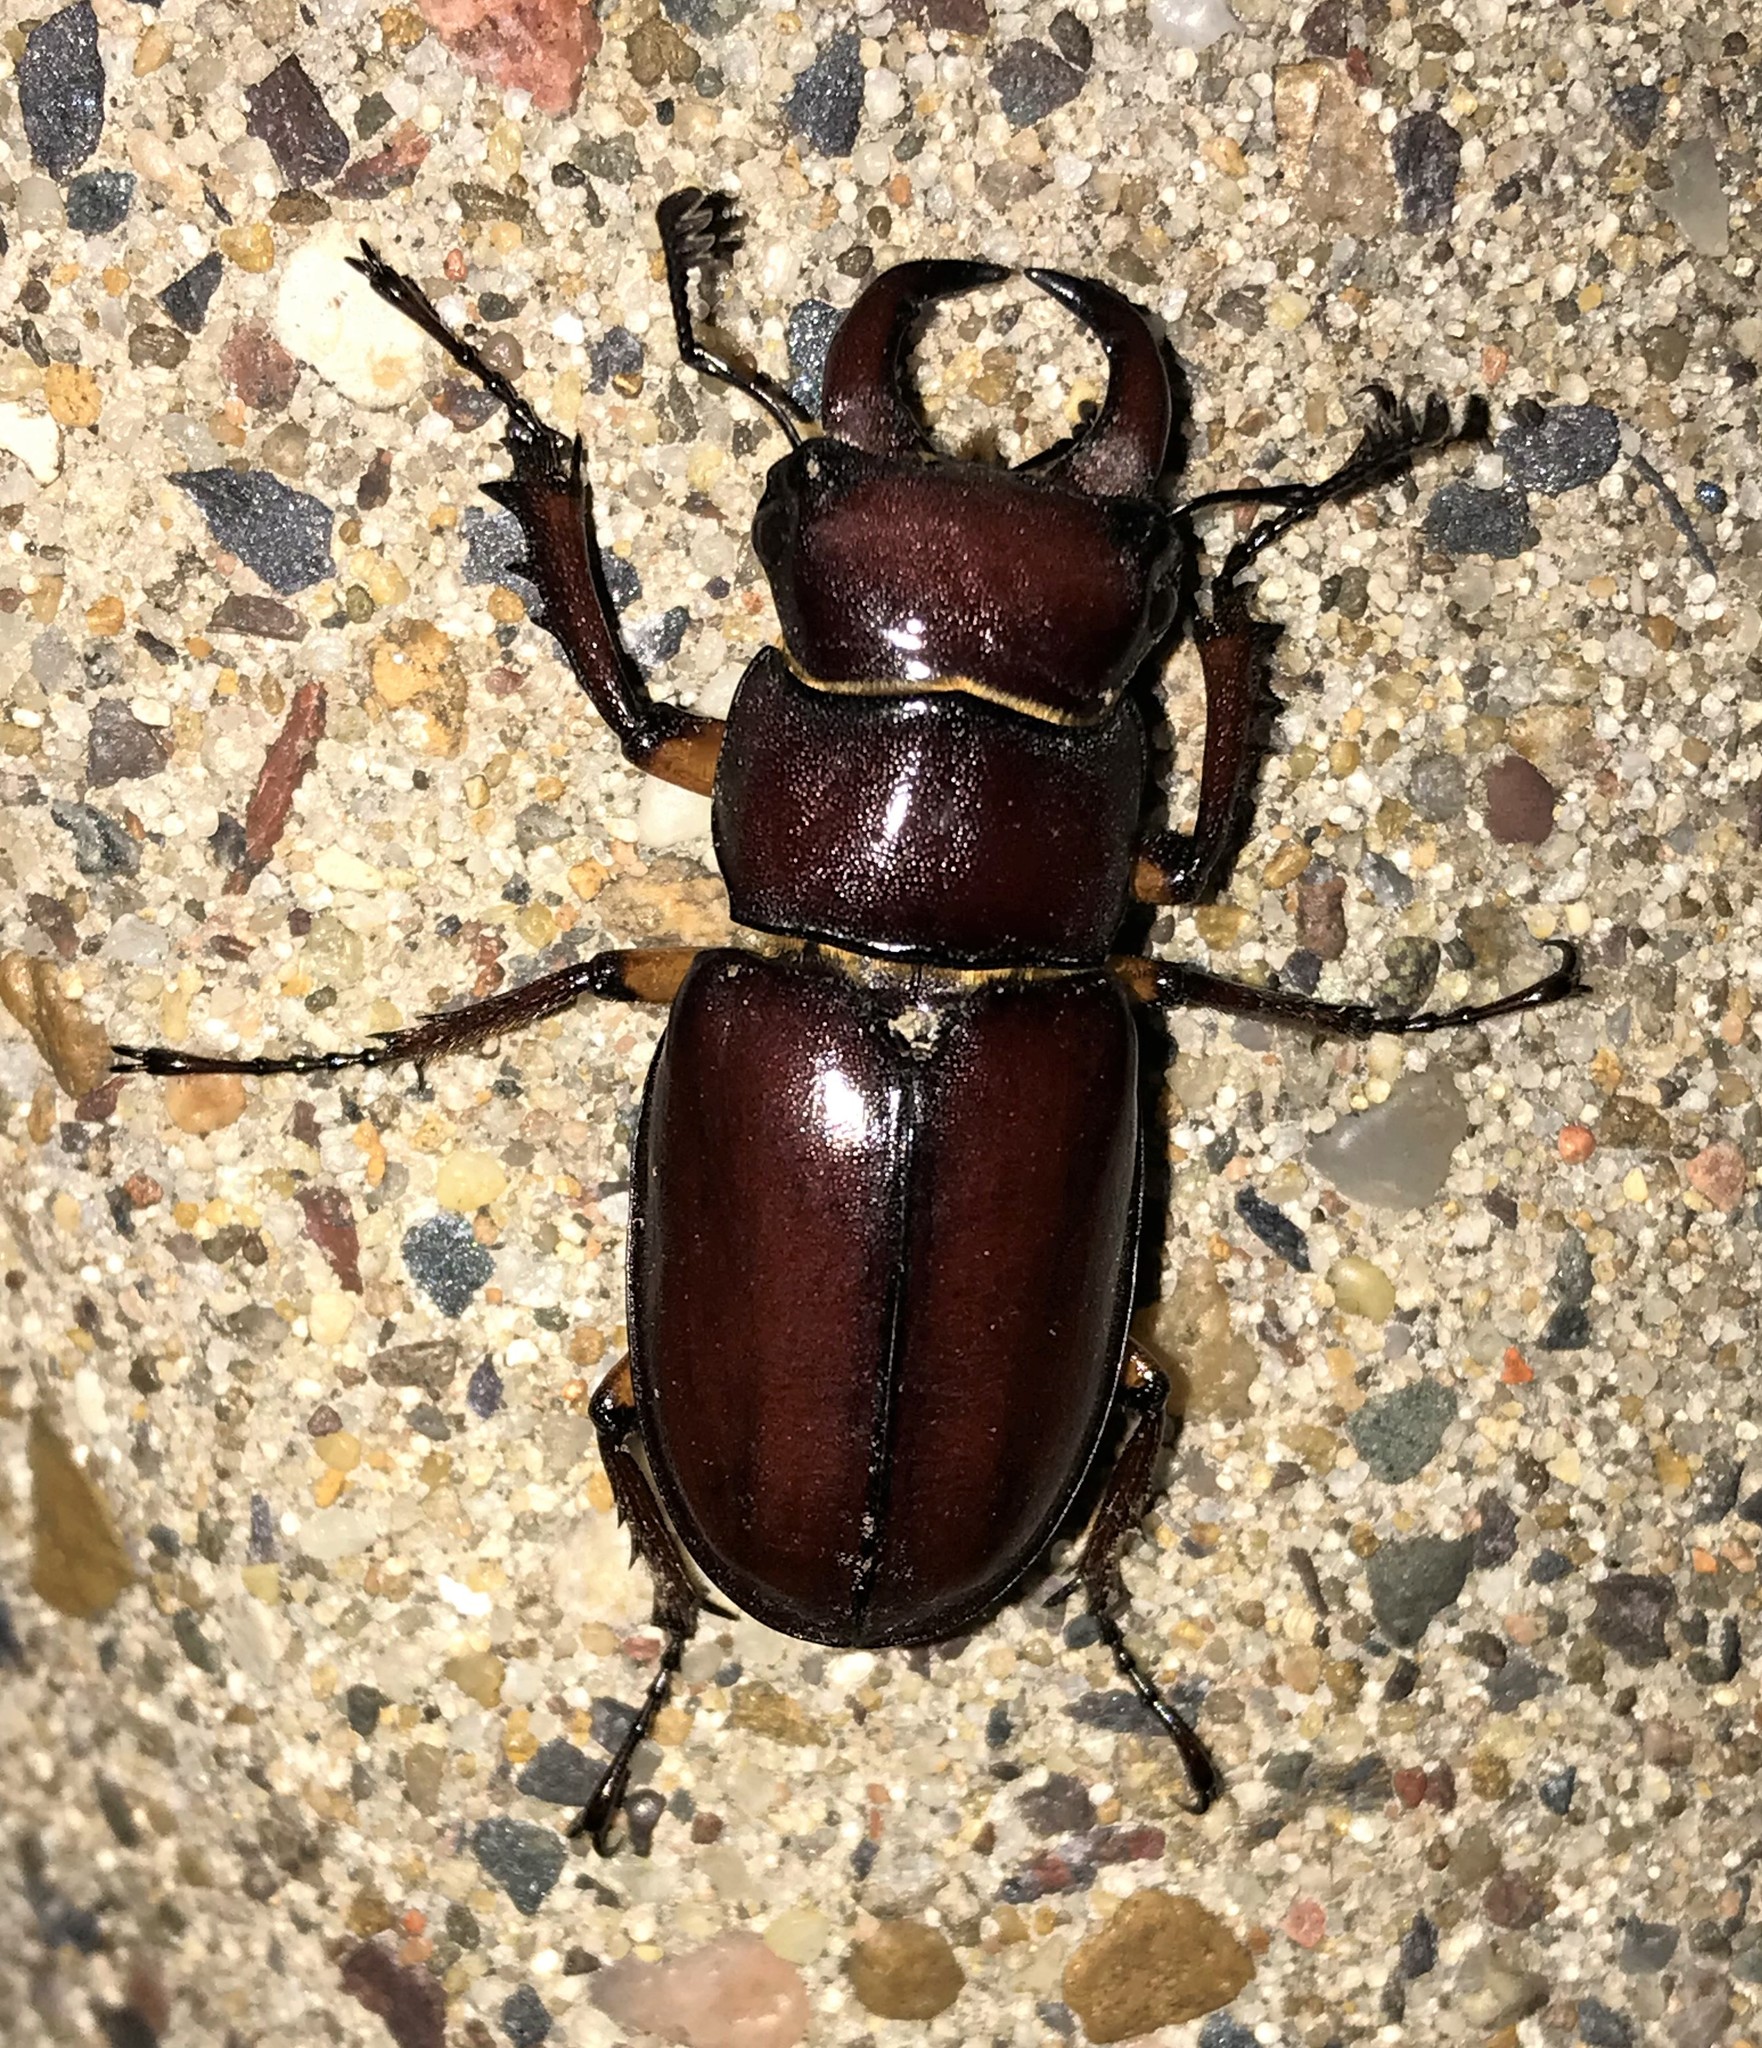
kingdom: Animalia
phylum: Arthropoda
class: Insecta
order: Coleoptera
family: Lucanidae
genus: Lucanus
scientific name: Lucanus capreolus
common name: Stag beetle
